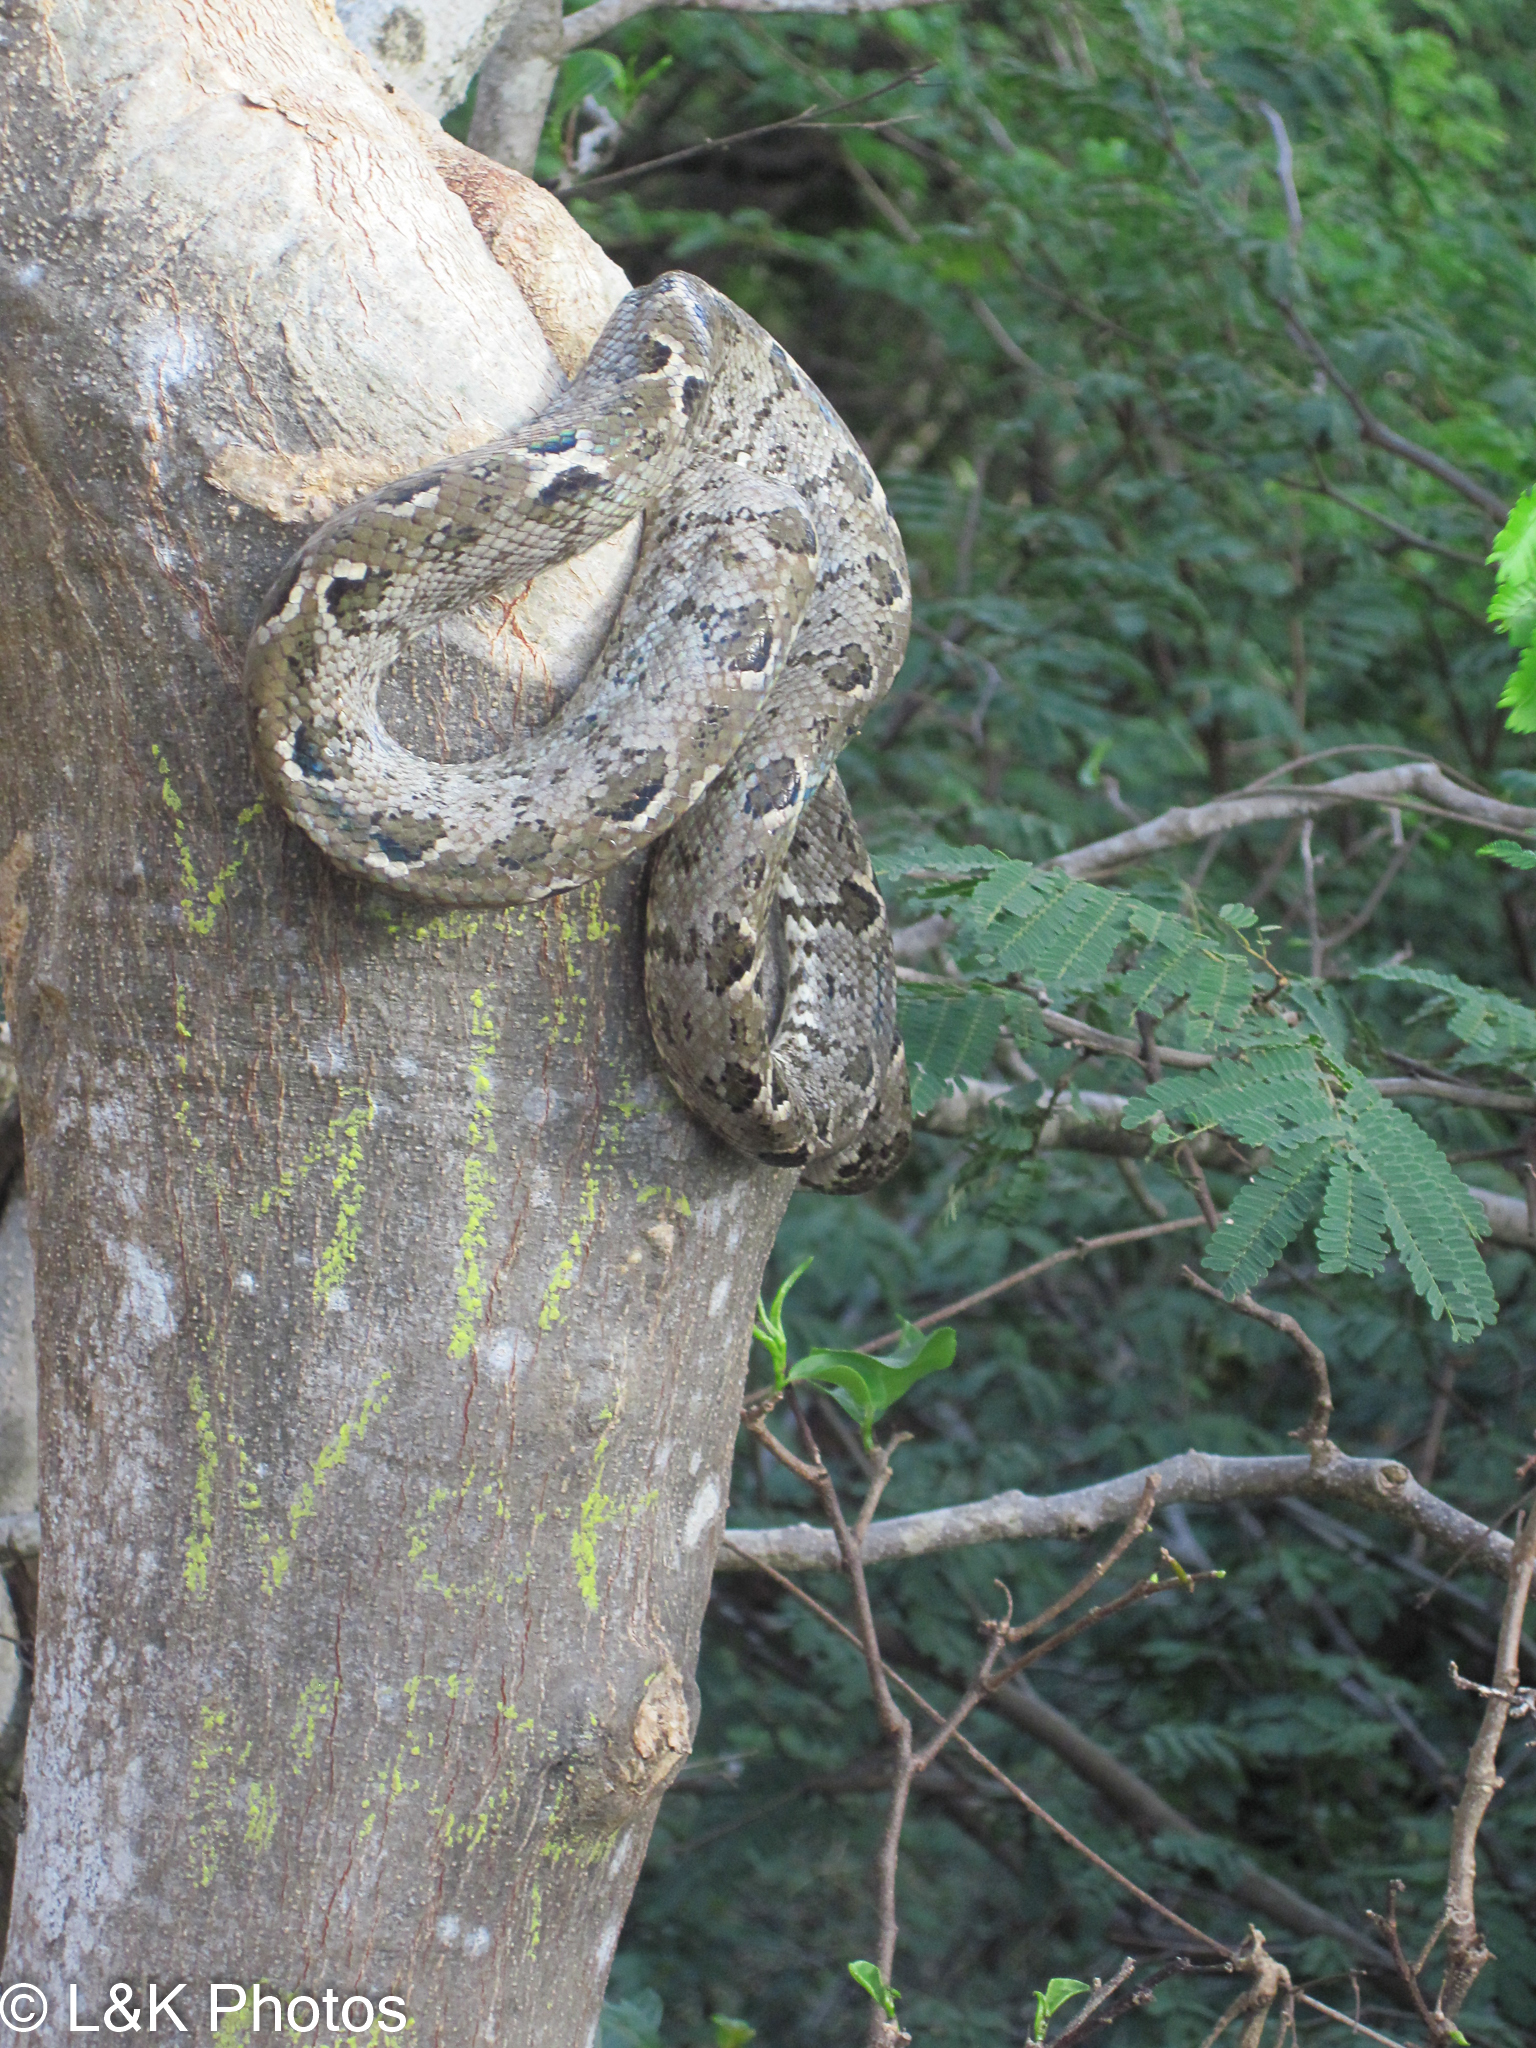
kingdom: Animalia
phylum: Chordata
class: Squamata
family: Boidae
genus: Corallus
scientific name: Corallus grenadensis
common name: Grenada tree boa
